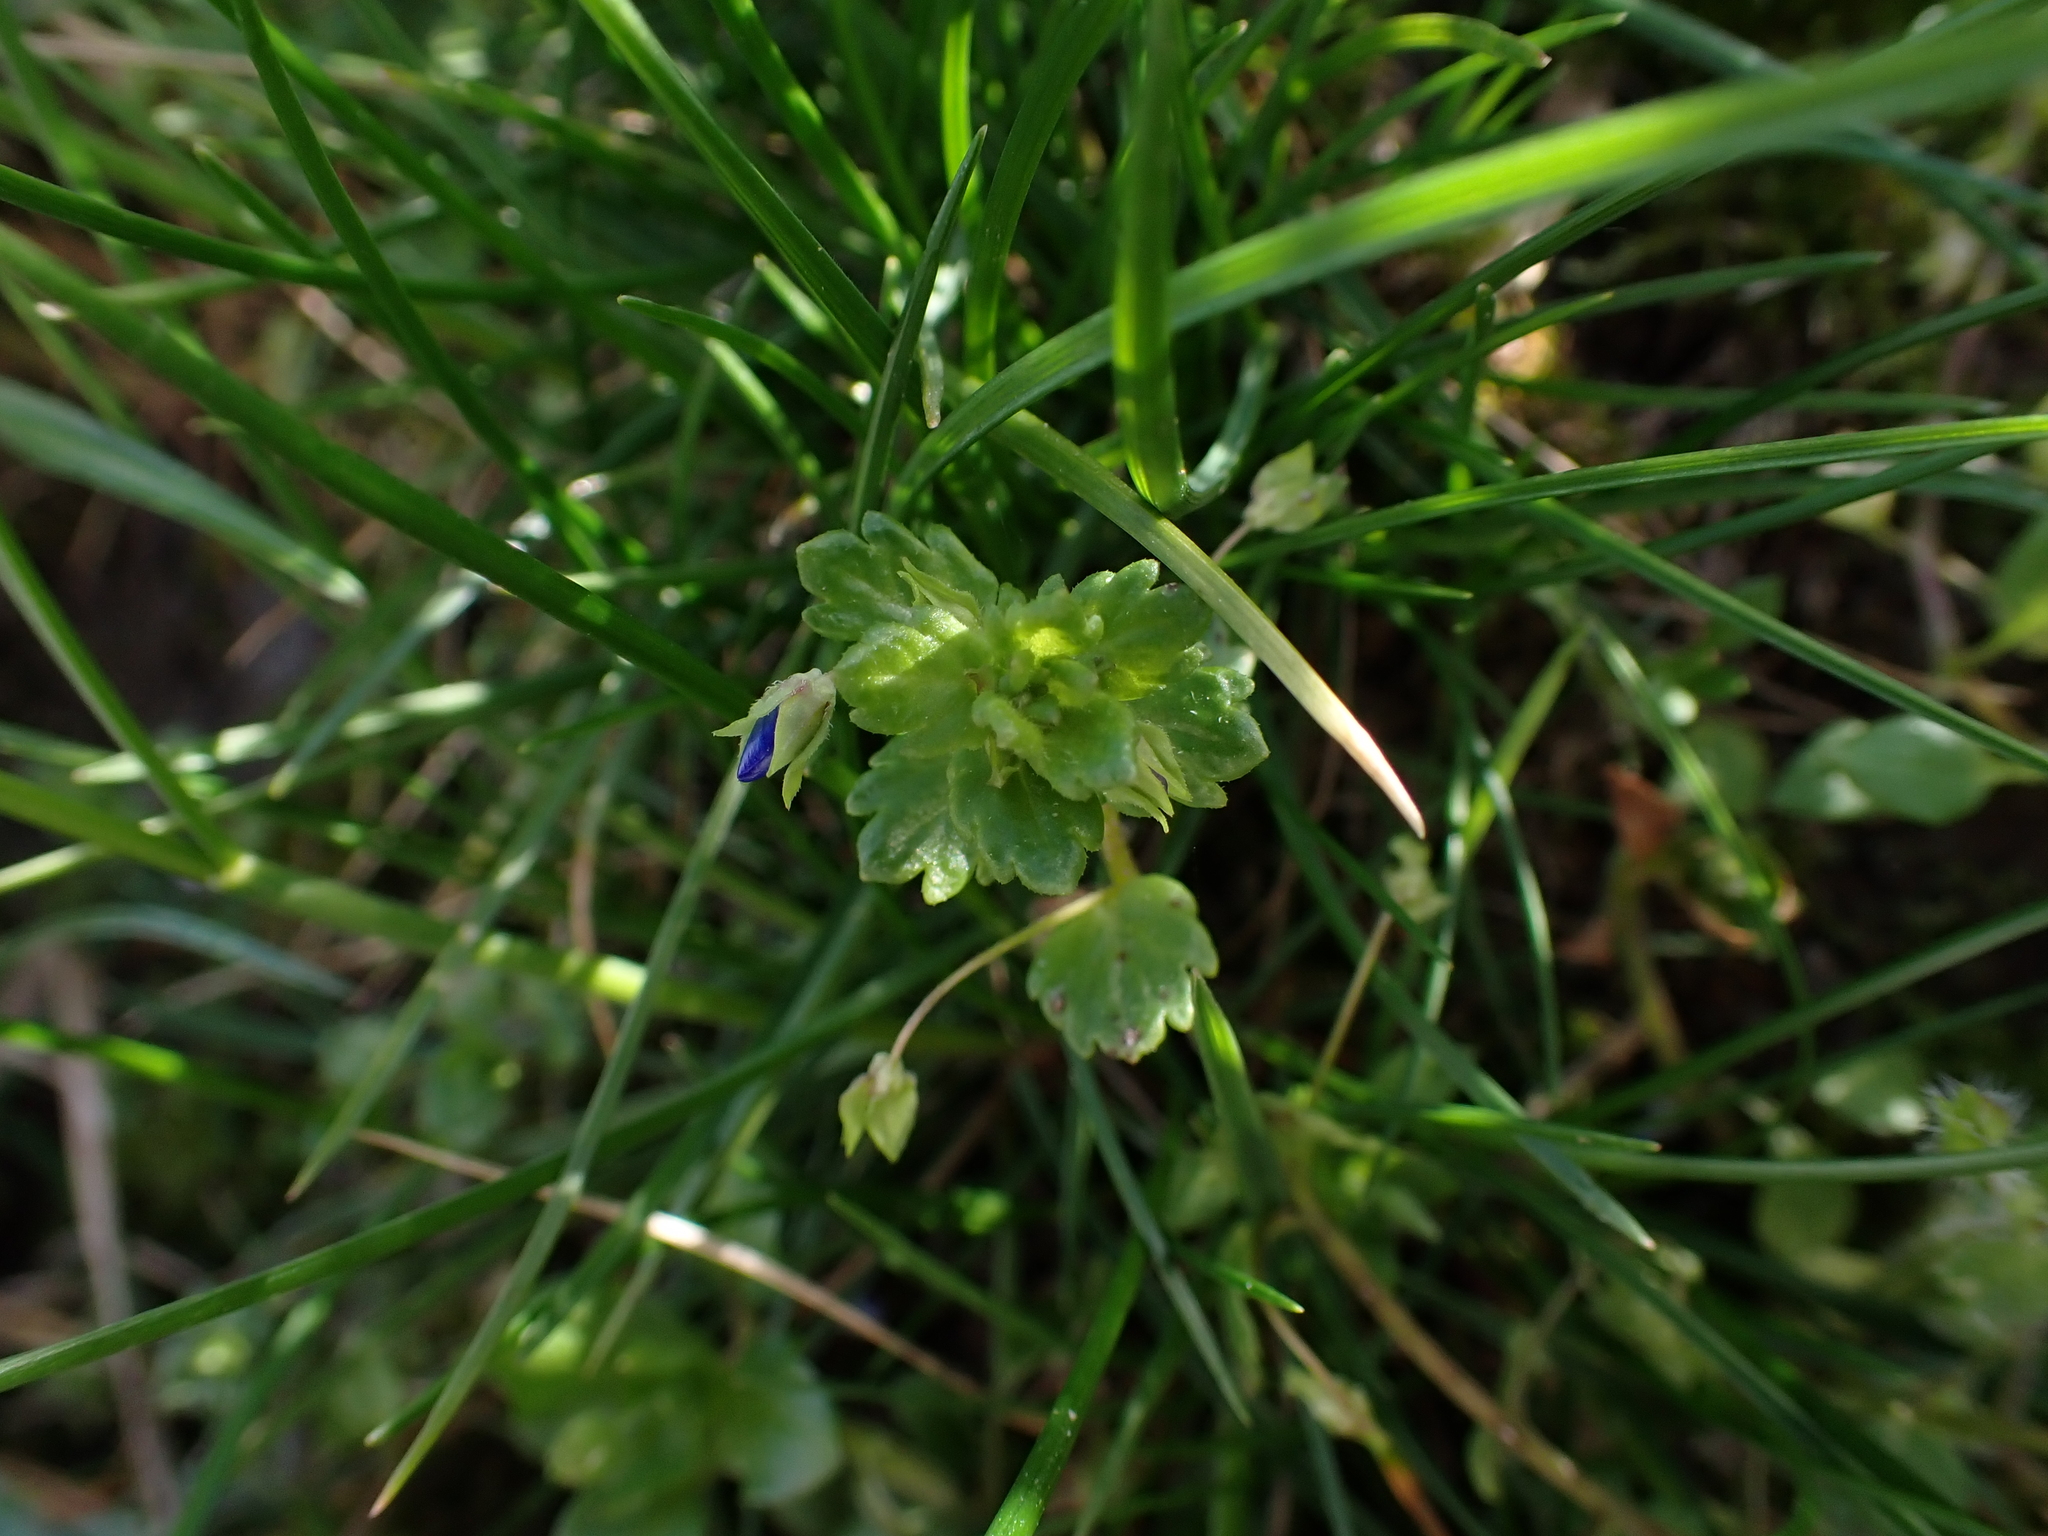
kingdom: Plantae
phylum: Tracheophyta
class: Magnoliopsida
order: Lamiales
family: Plantaginaceae
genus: Veronica
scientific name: Veronica polita
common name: Grey field-speedwell
